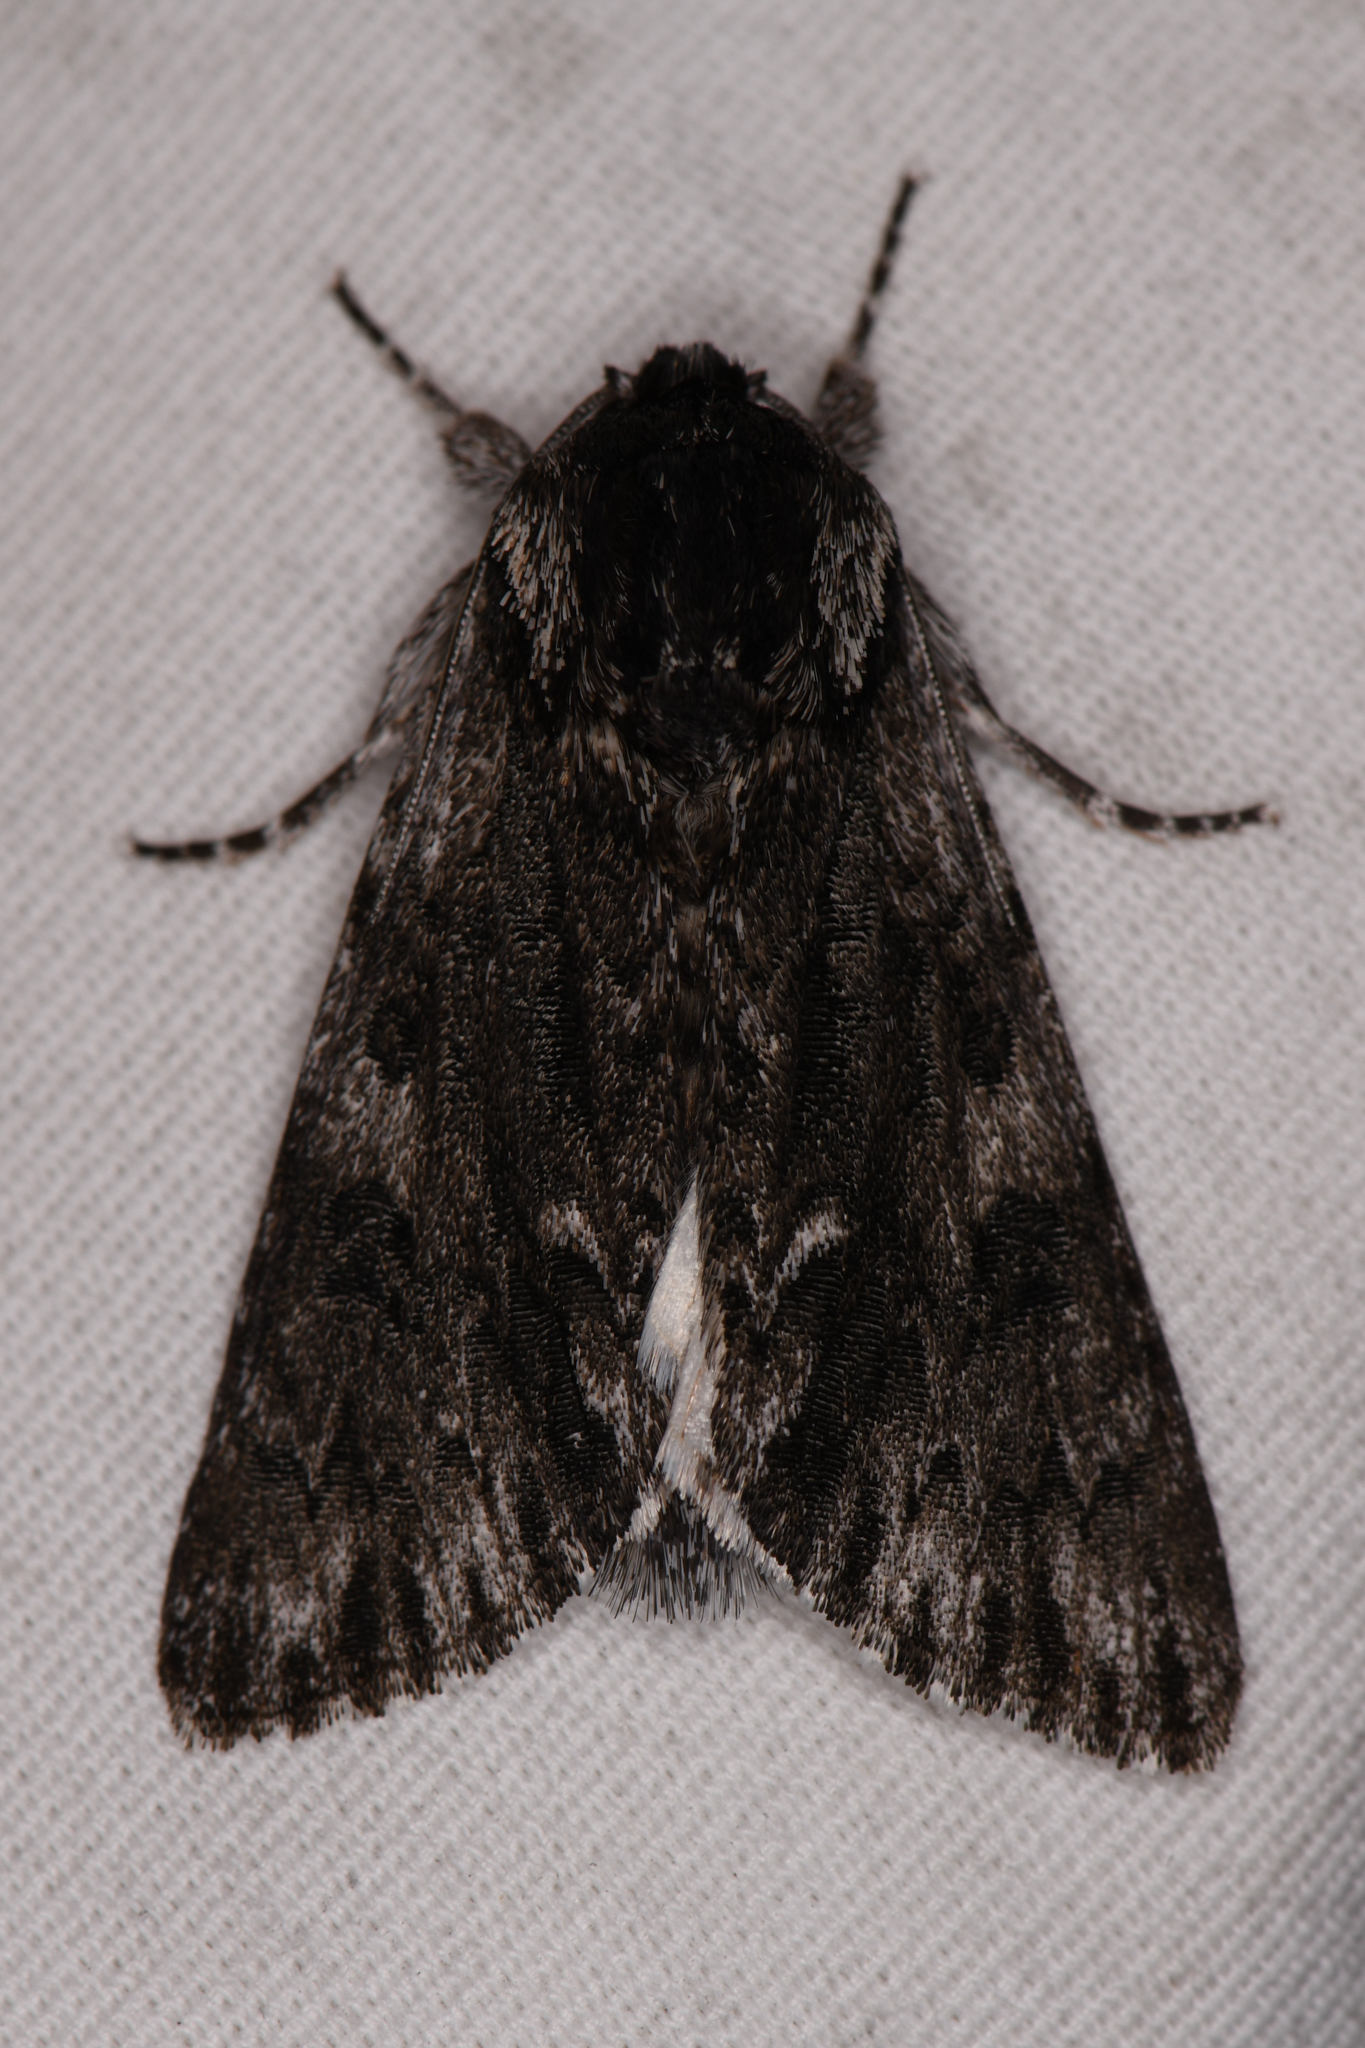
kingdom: Animalia
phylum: Arthropoda
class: Insecta
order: Lepidoptera
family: Noctuidae
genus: Acronicta
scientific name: Acronicta perdita
